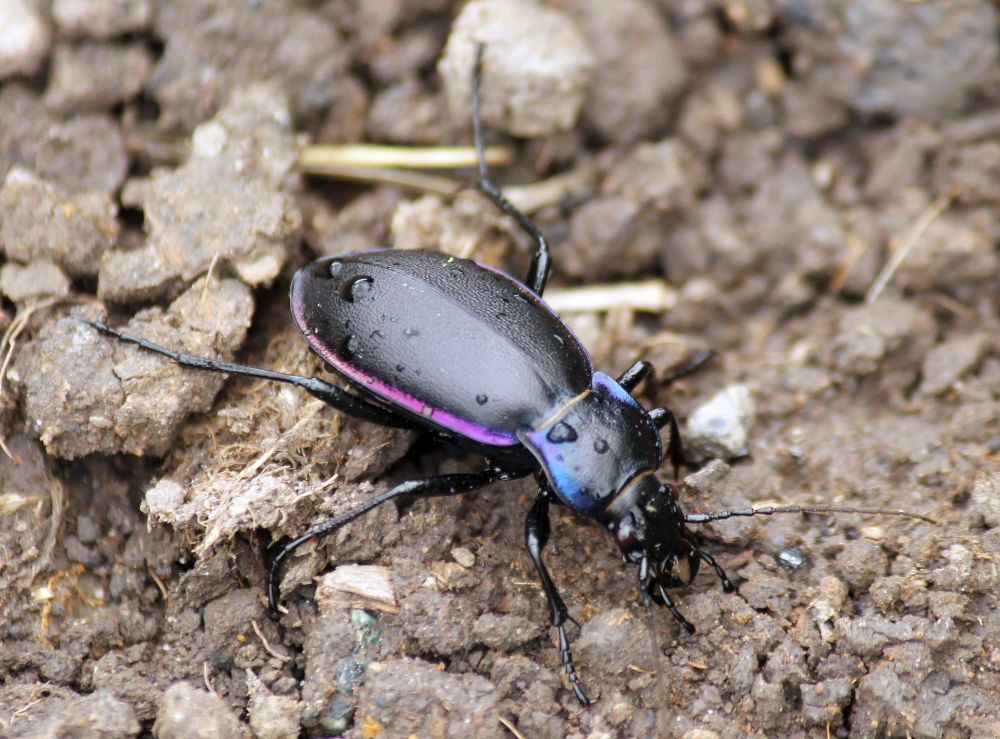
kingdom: Animalia
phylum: Arthropoda
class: Insecta
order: Coleoptera
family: Carabidae
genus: Carabus
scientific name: Carabus violaceus
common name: Violet ground beetle
